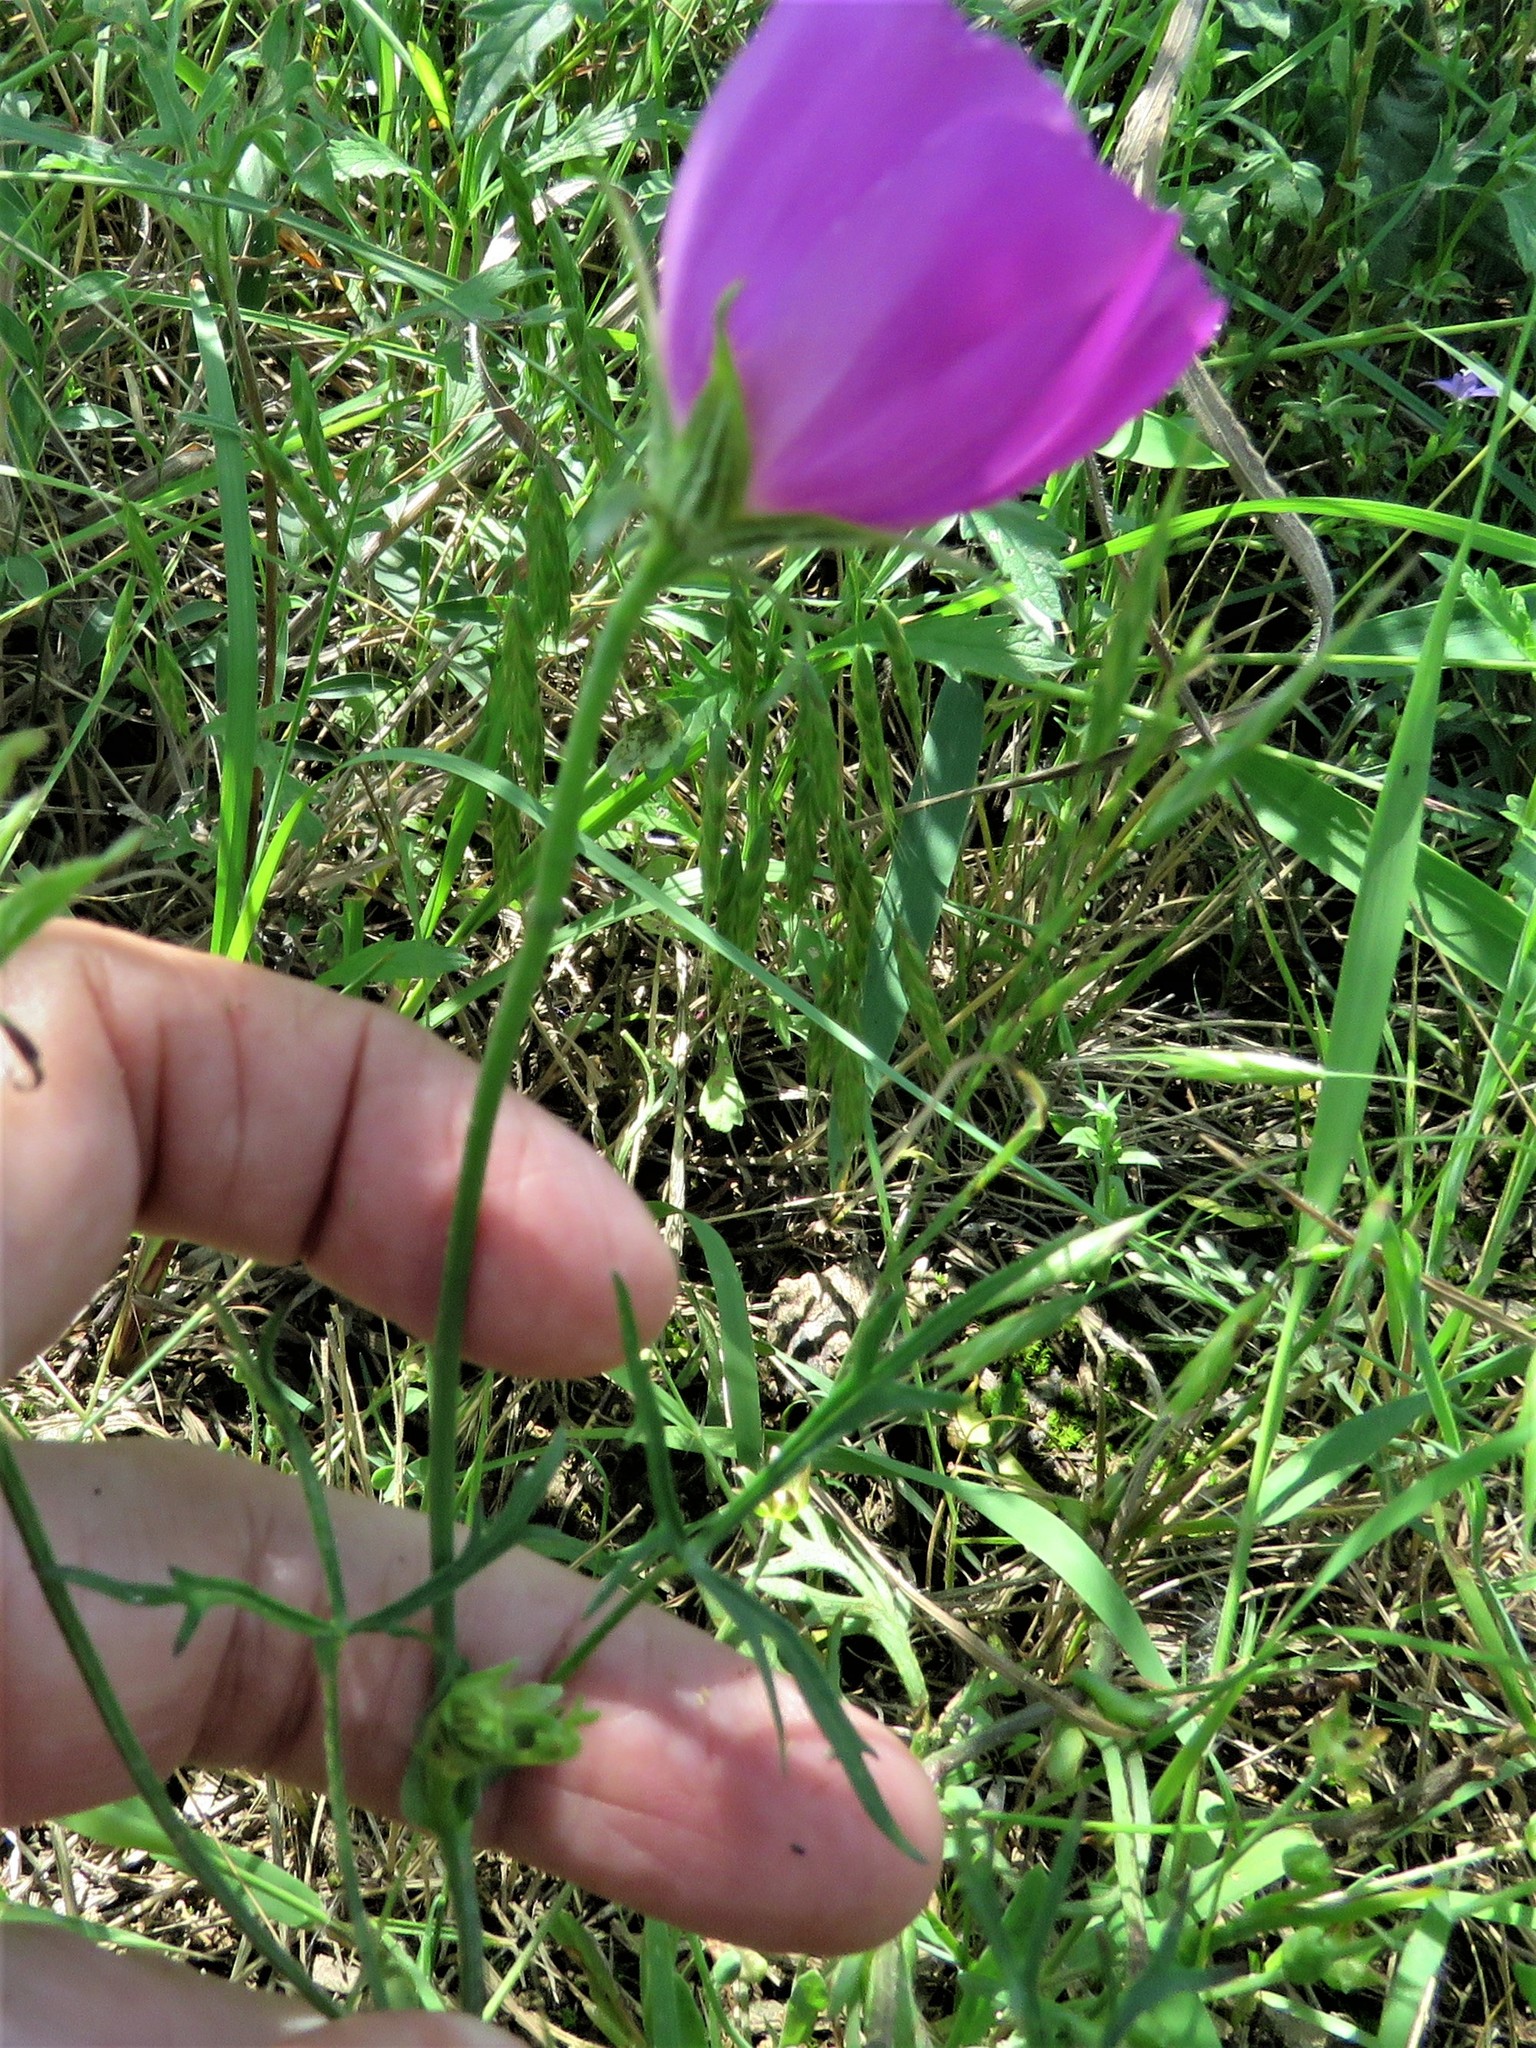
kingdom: Plantae
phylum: Tracheophyta
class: Magnoliopsida
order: Malvales
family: Malvaceae
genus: Callirhoe
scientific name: Callirhoe involucrata
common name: Purple poppy-mallow
